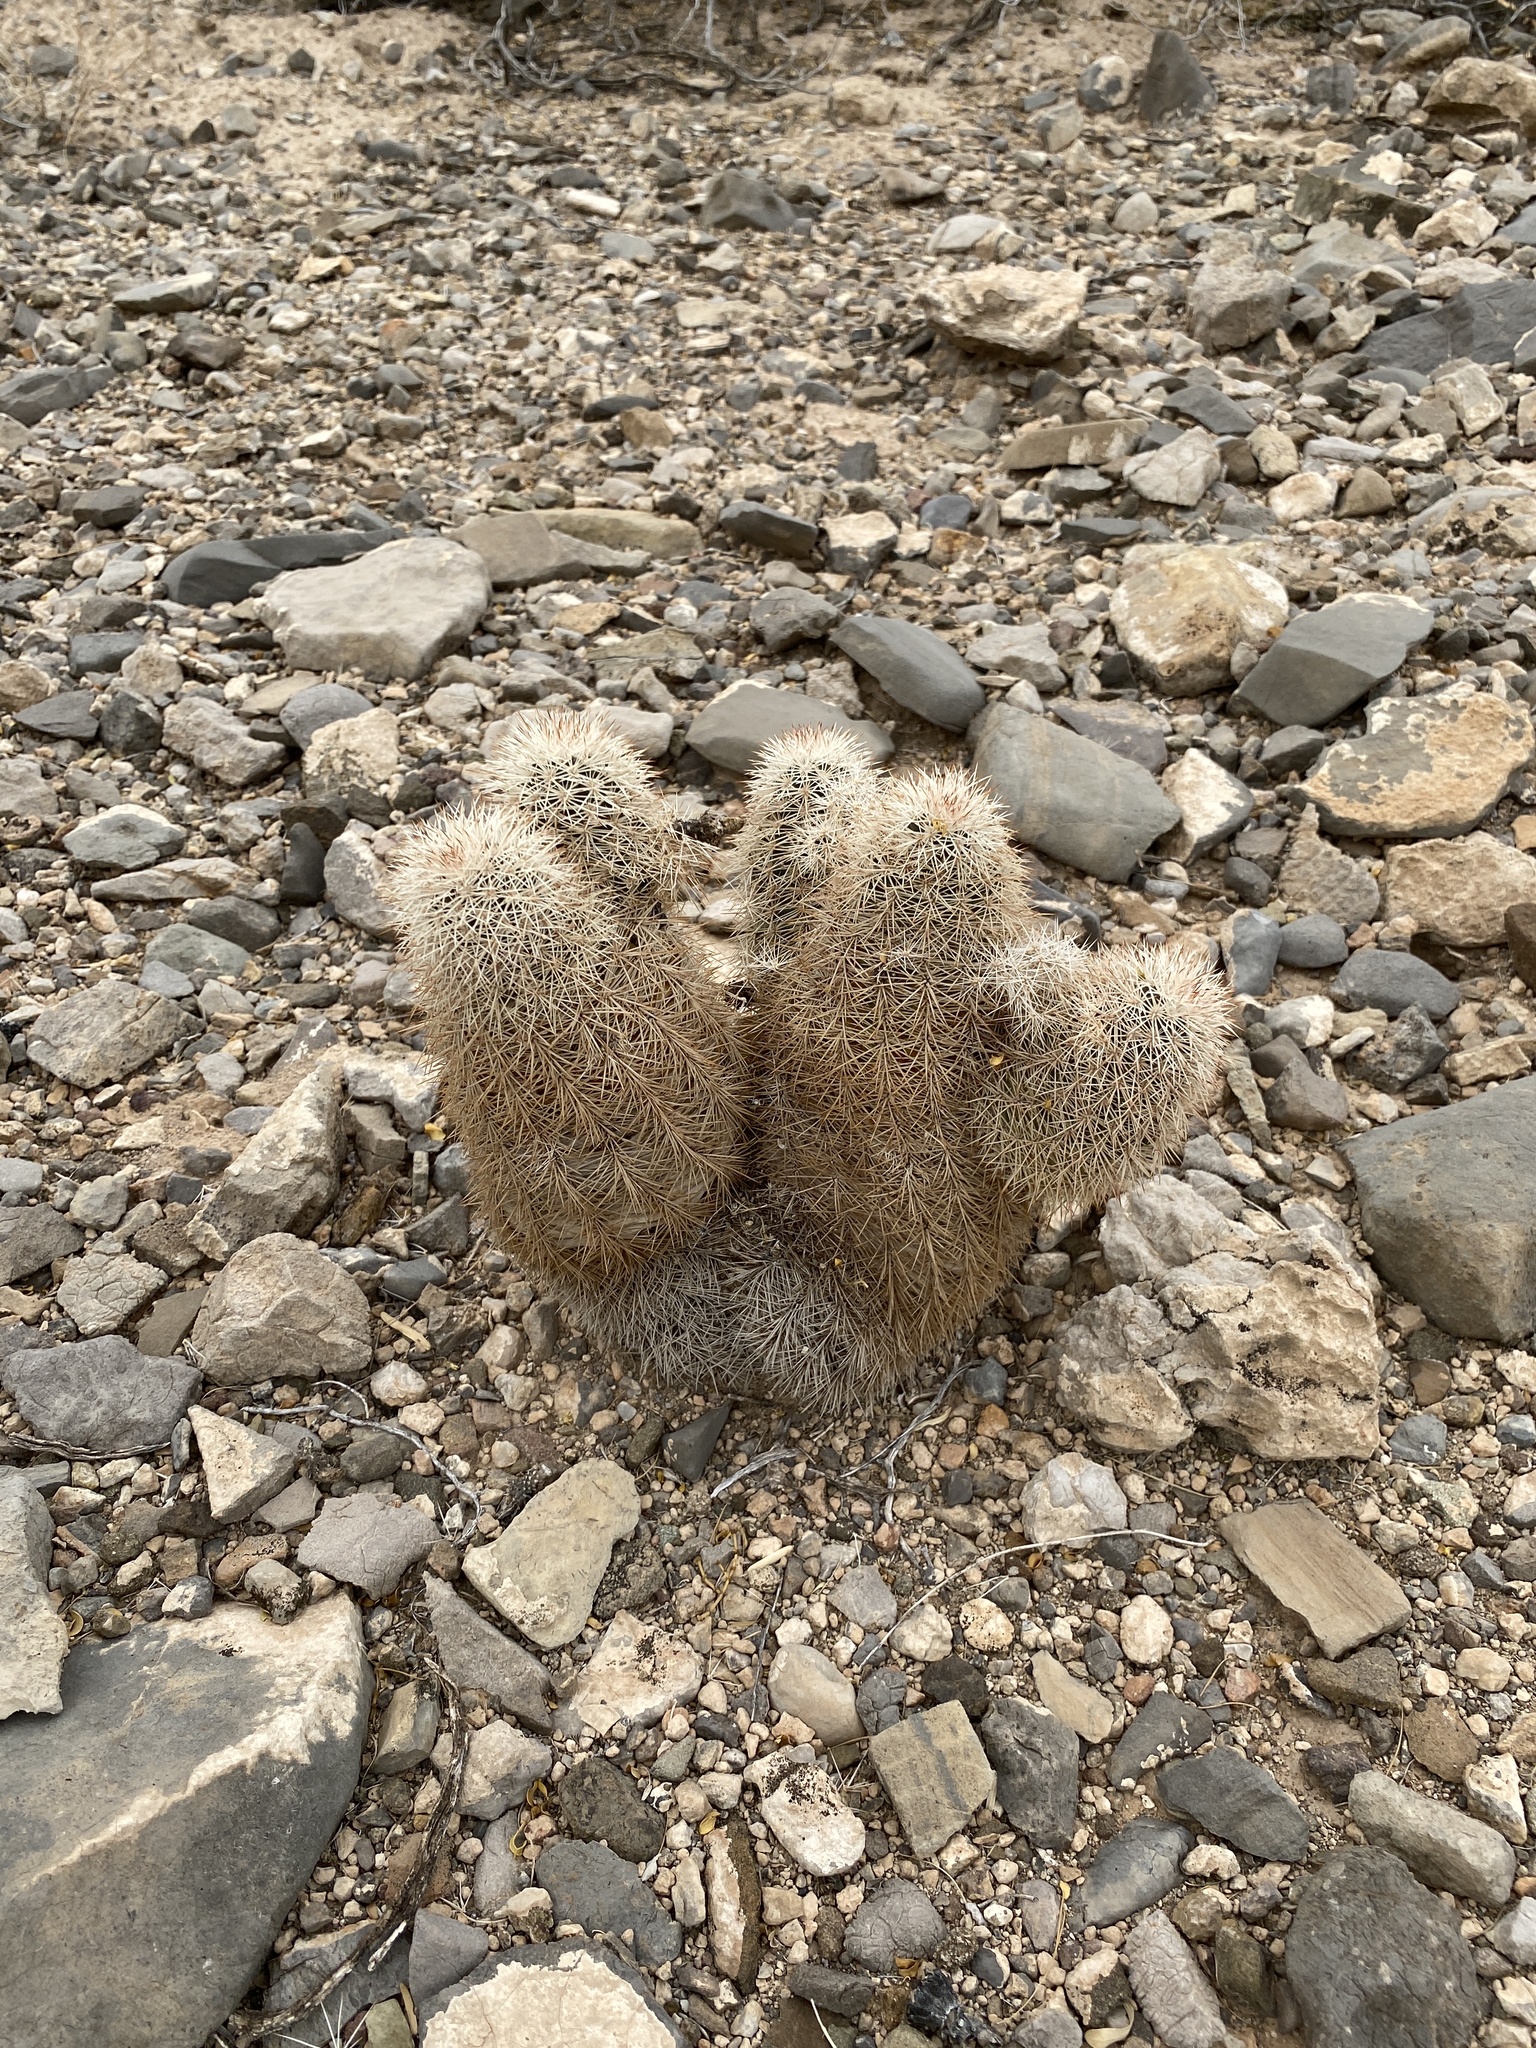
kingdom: Plantae
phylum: Tracheophyta
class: Magnoliopsida
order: Caryophyllales
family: Cactaceae
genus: Echinocereus
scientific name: Echinocereus dasyacanthus
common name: Spiny hedgehog cactus
